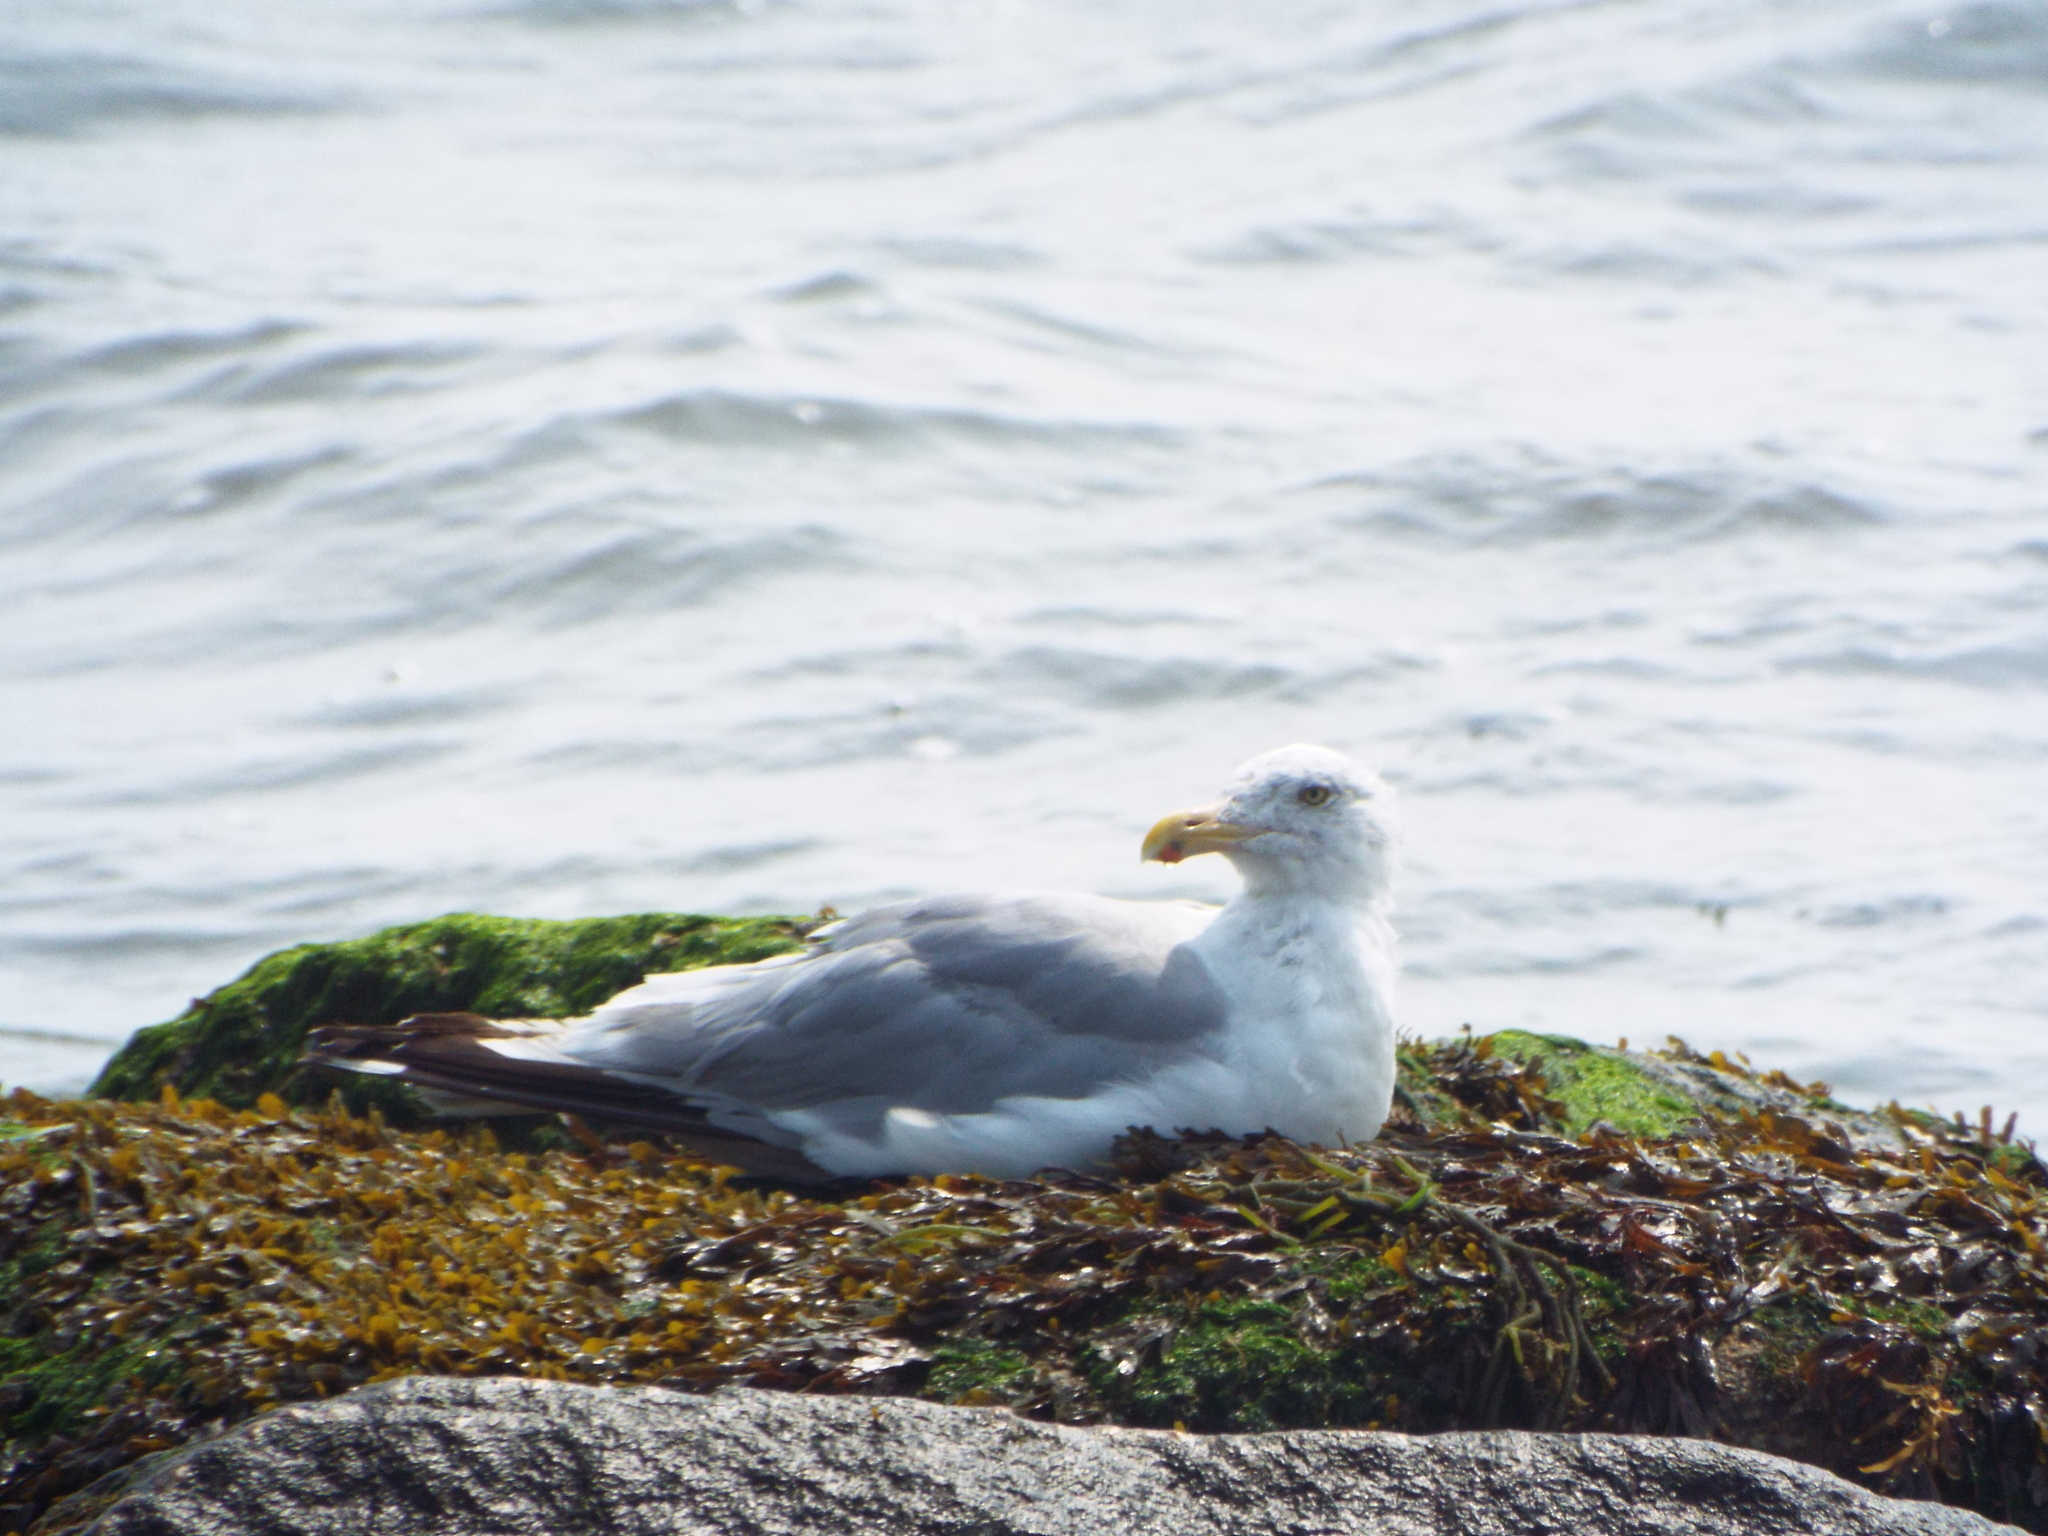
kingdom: Animalia
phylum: Chordata
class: Aves
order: Charadriiformes
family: Laridae
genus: Larus
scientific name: Larus argentatus
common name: Herring gull
